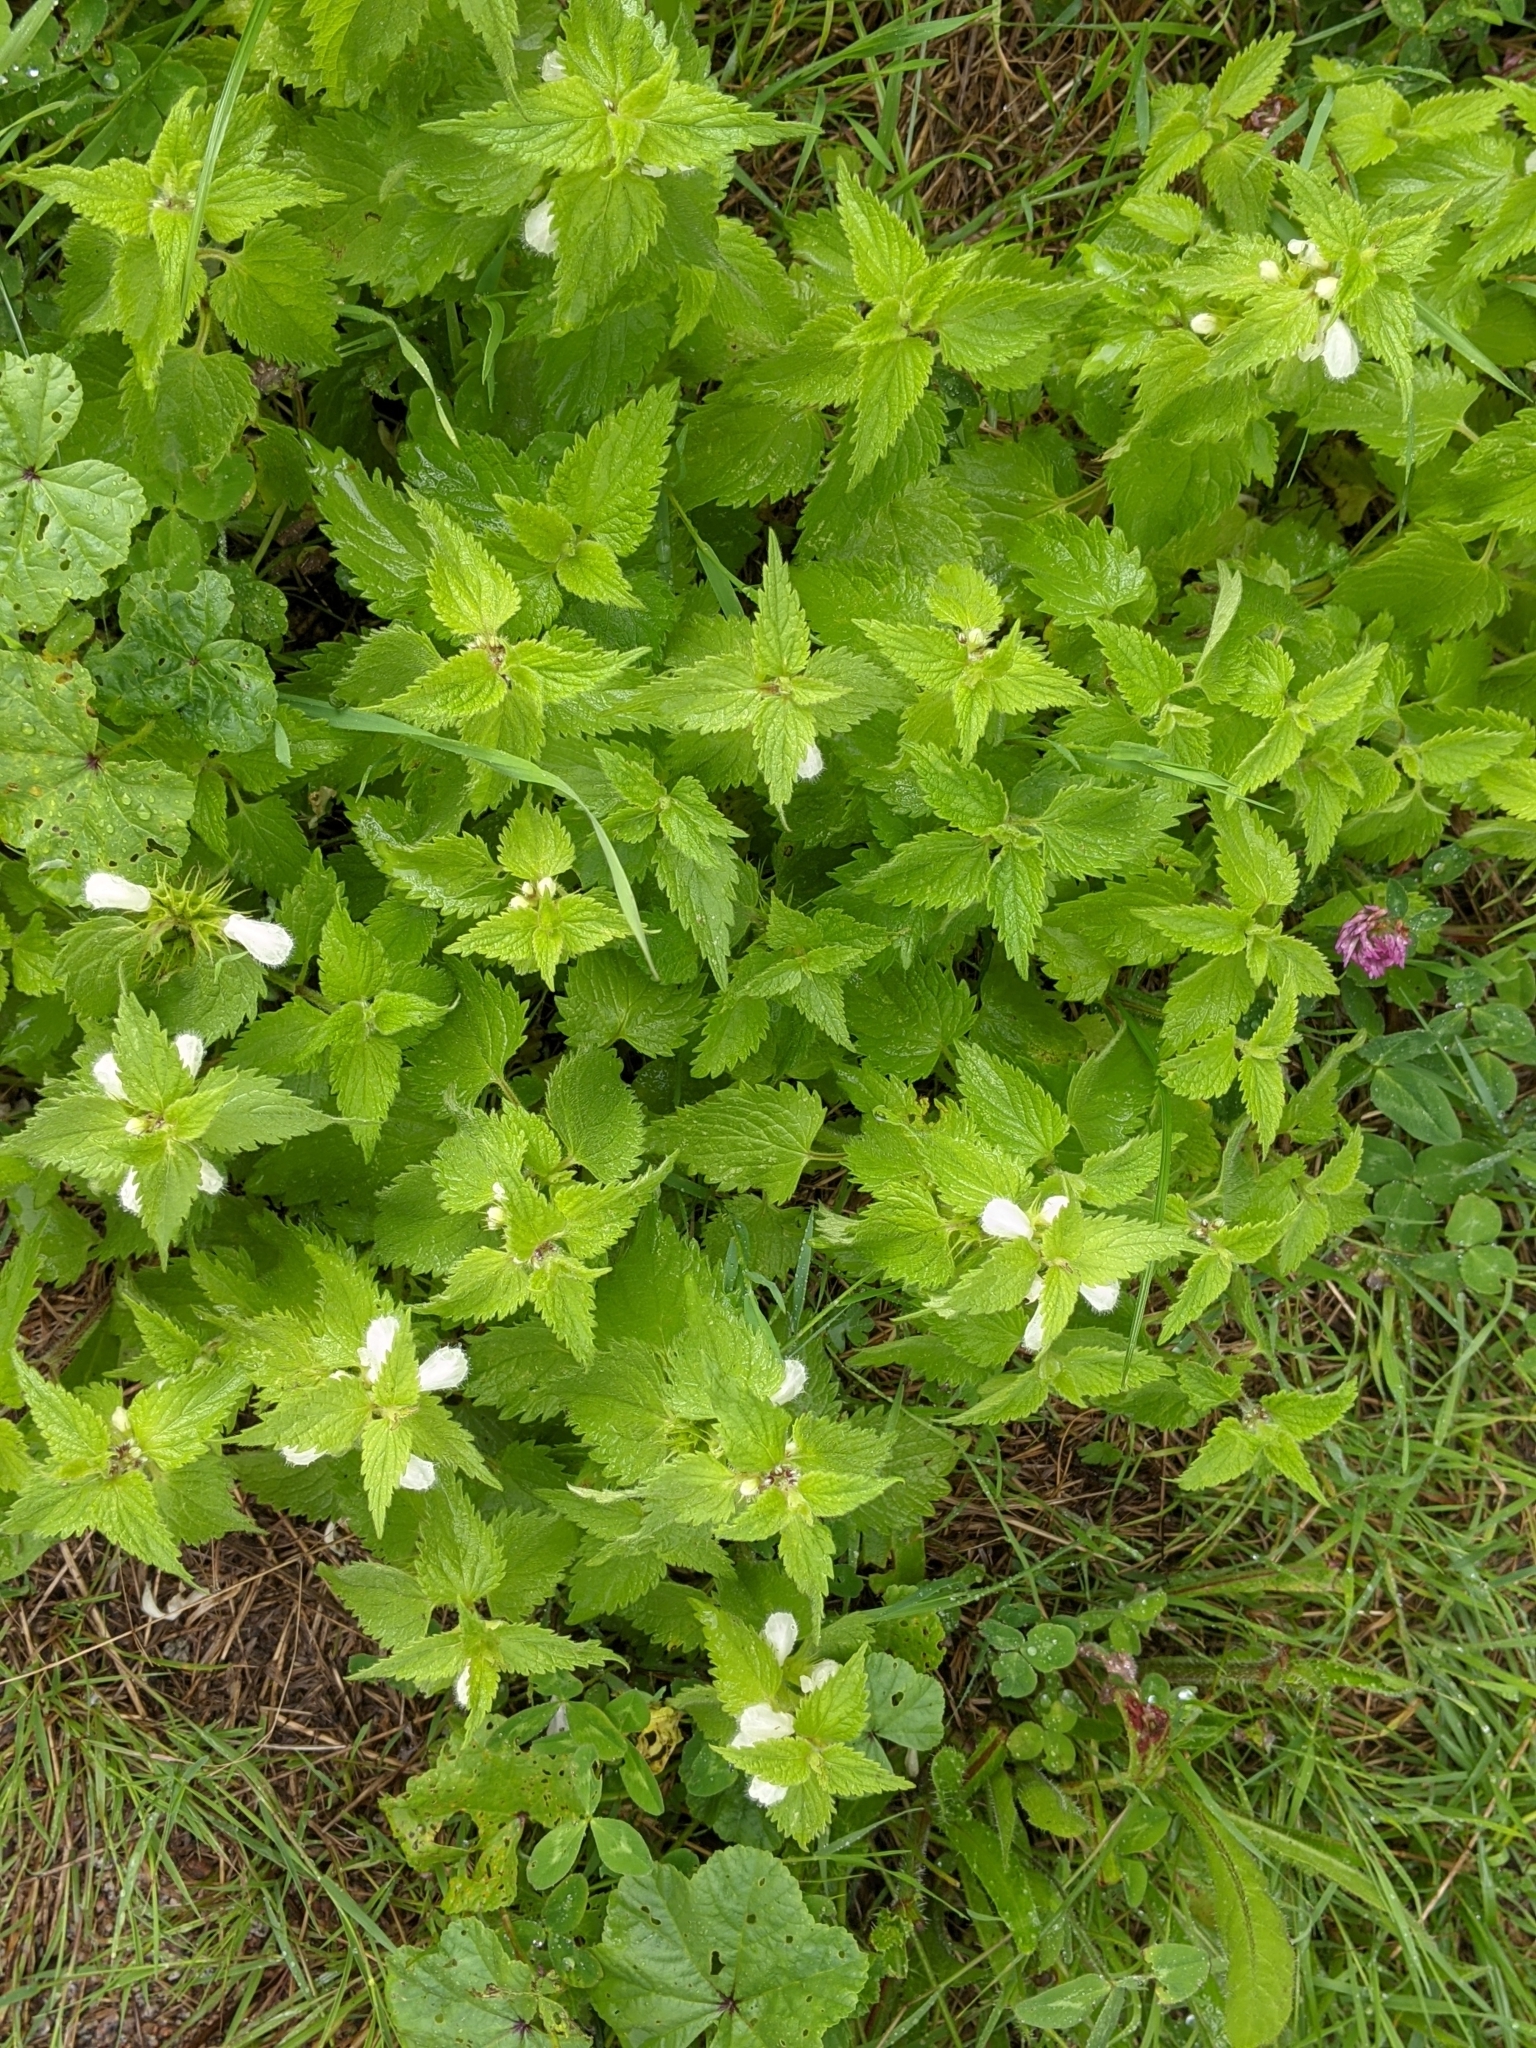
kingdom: Plantae
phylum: Tracheophyta
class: Magnoliopsida
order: Lamiales
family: Lamiaceae
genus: Lamium
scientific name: Lamium album
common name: White dead-nettle
